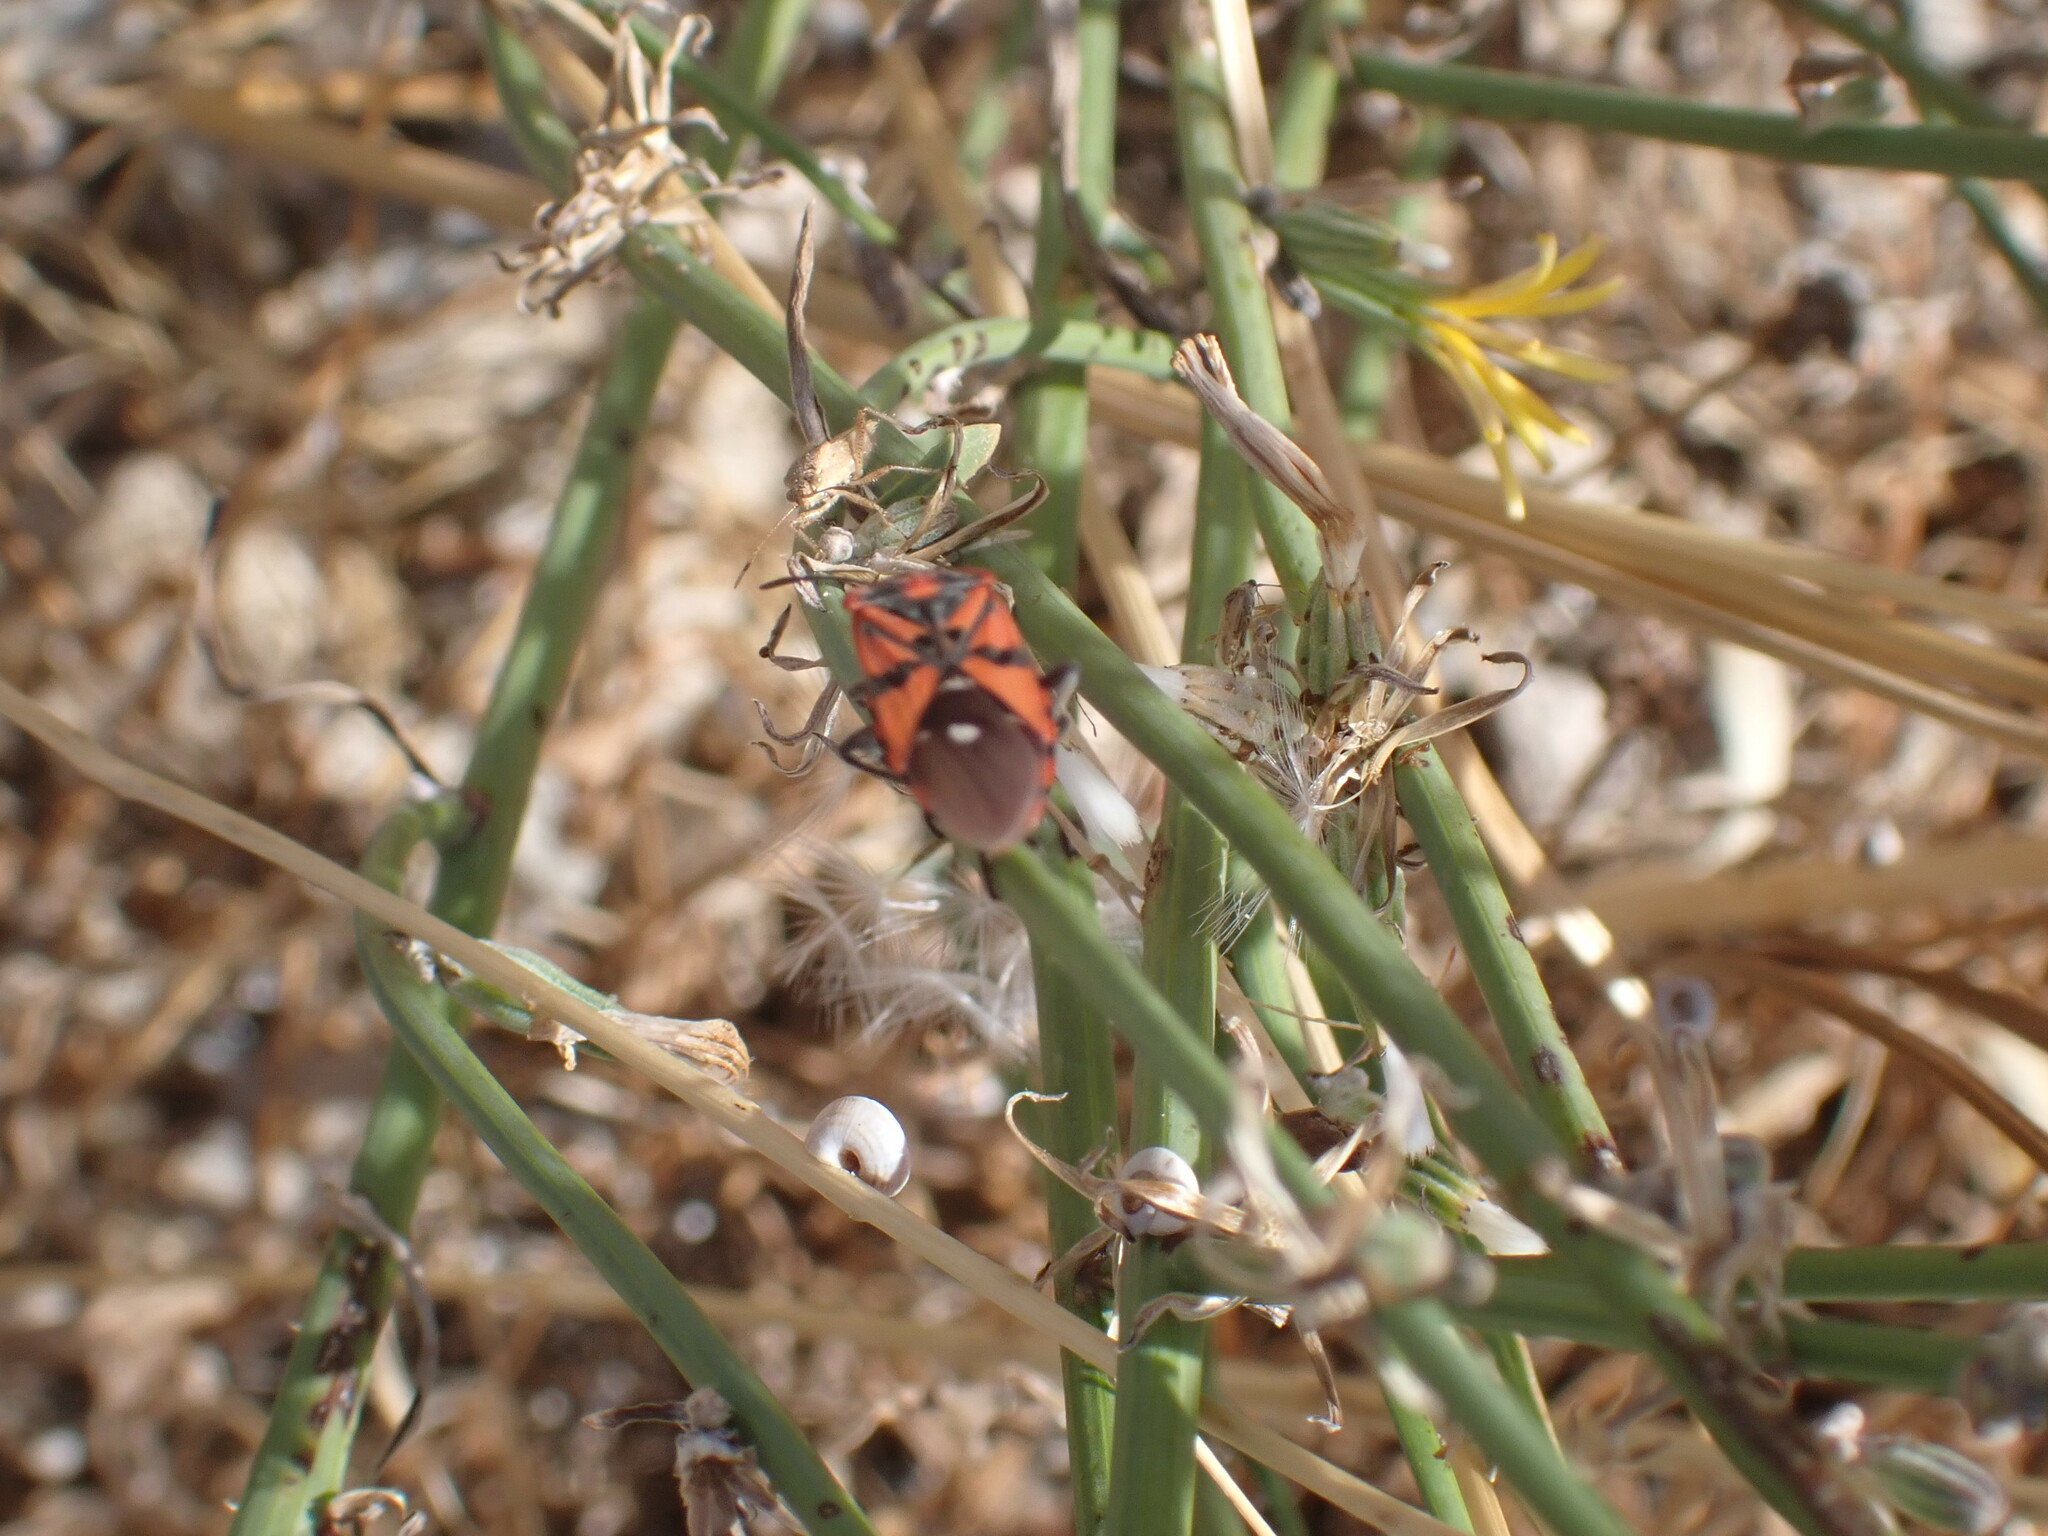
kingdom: Animalia
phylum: Arthropoda
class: Insecta
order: Hemiptera
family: Lygaeidae
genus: Spilostethus
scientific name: Spilostethus pandurus
